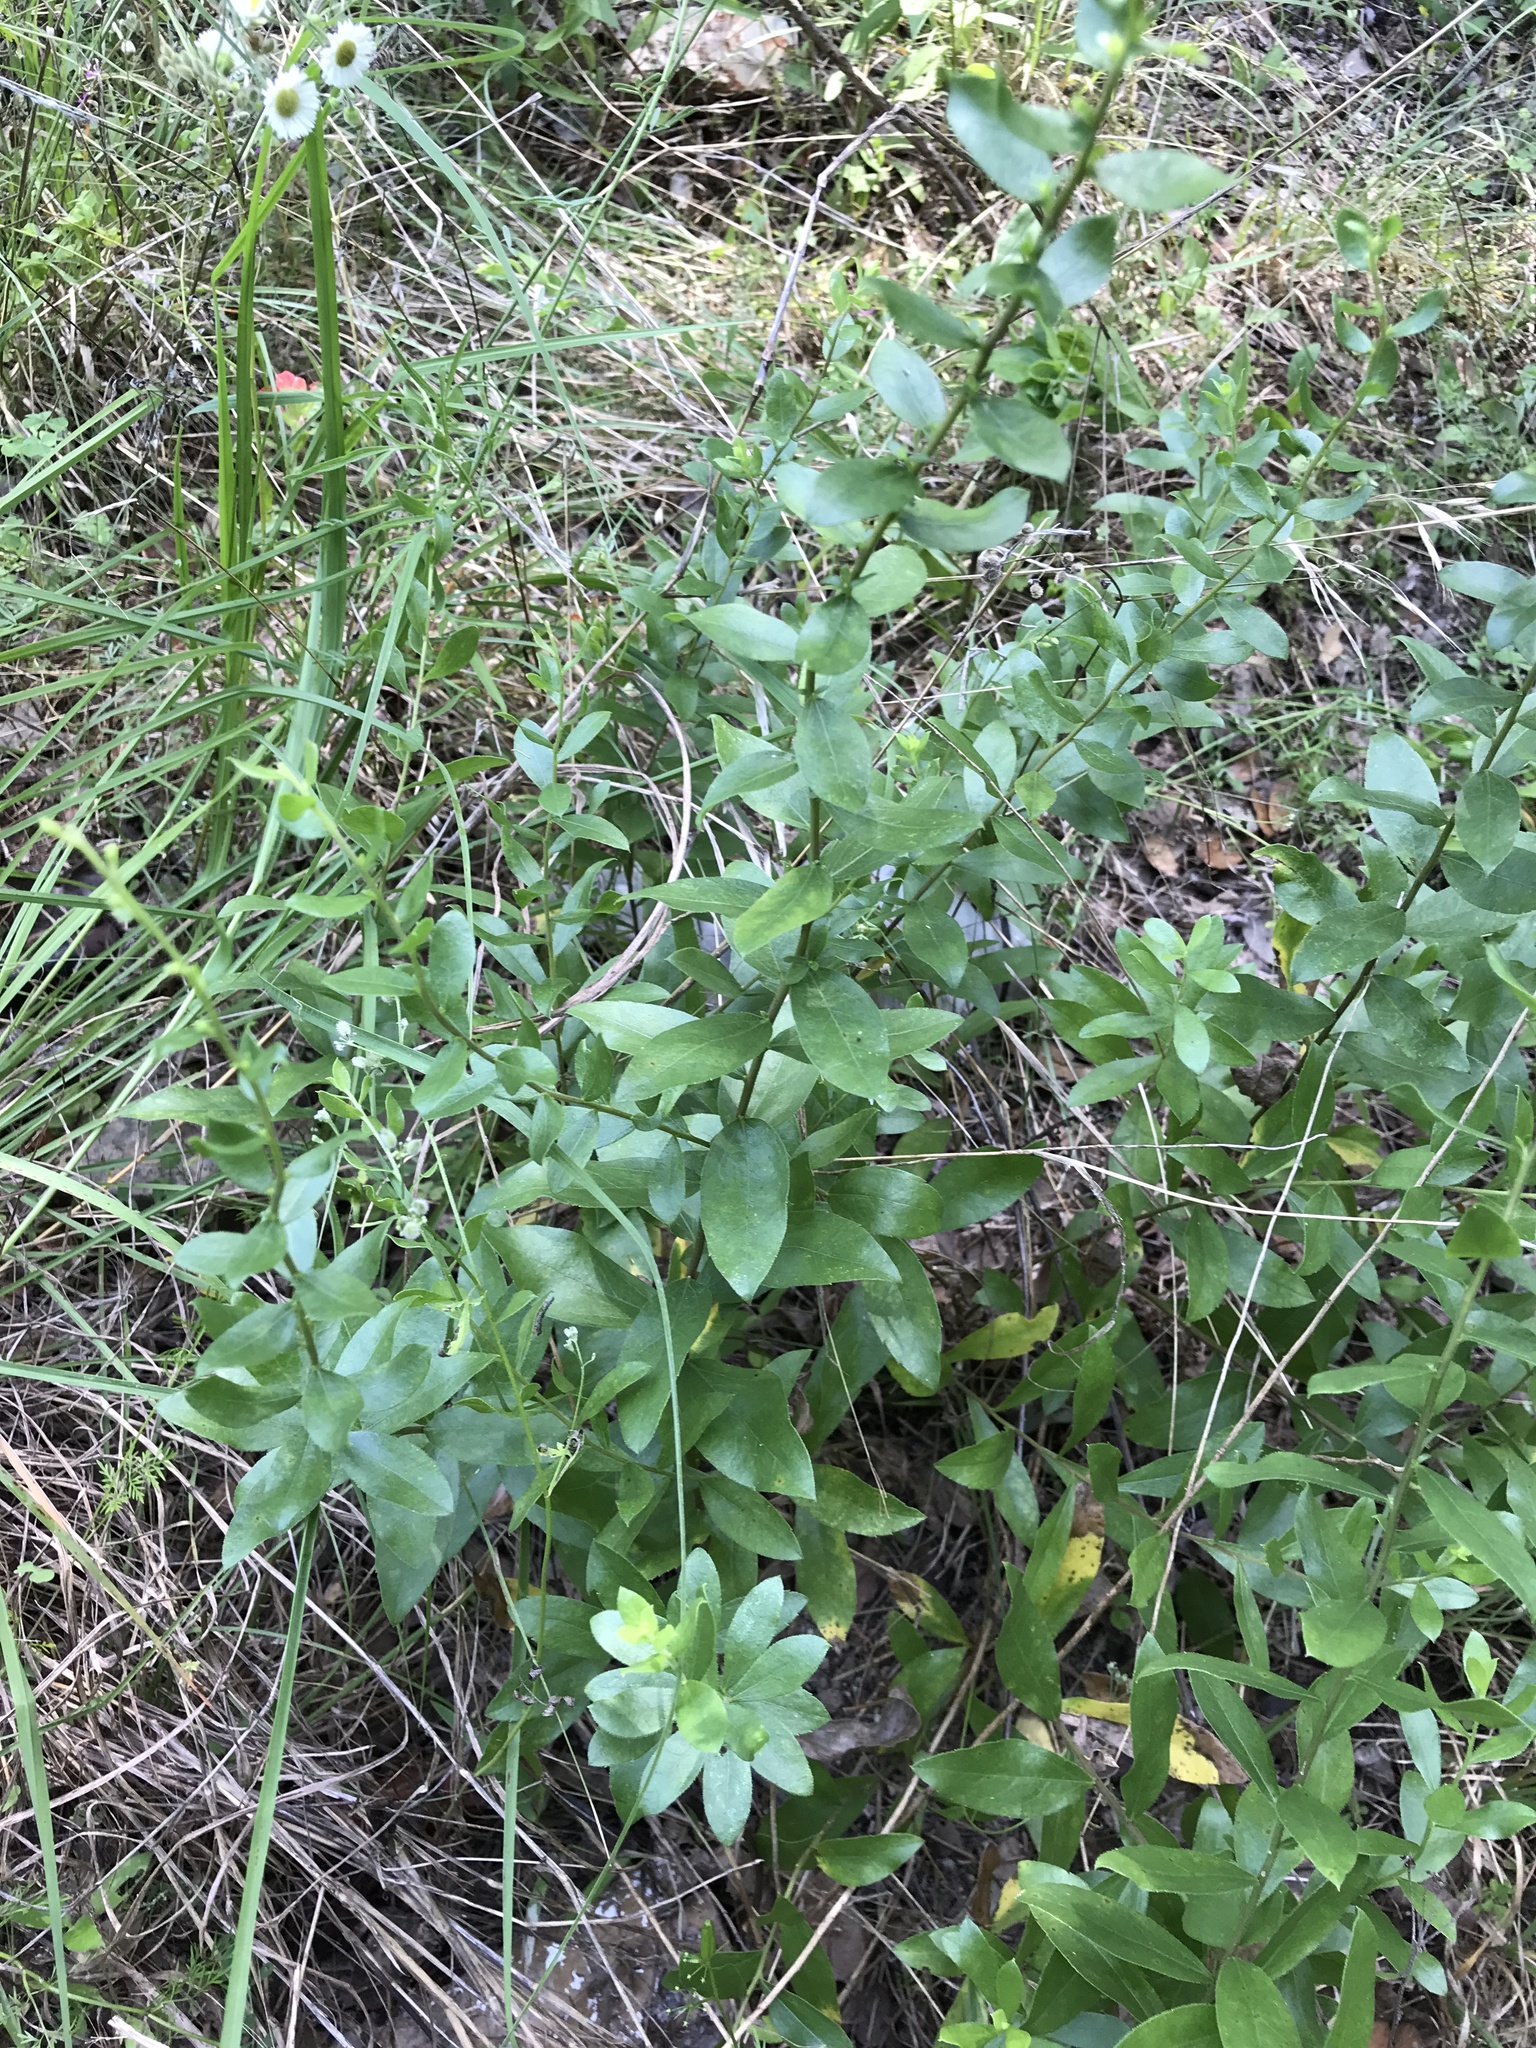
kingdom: Plantae
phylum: Tracheophyta
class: Magnoliopsida
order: Malpighiales
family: Euphorbiaceae
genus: Ditaxis
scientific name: Ditaxis mercurialina
